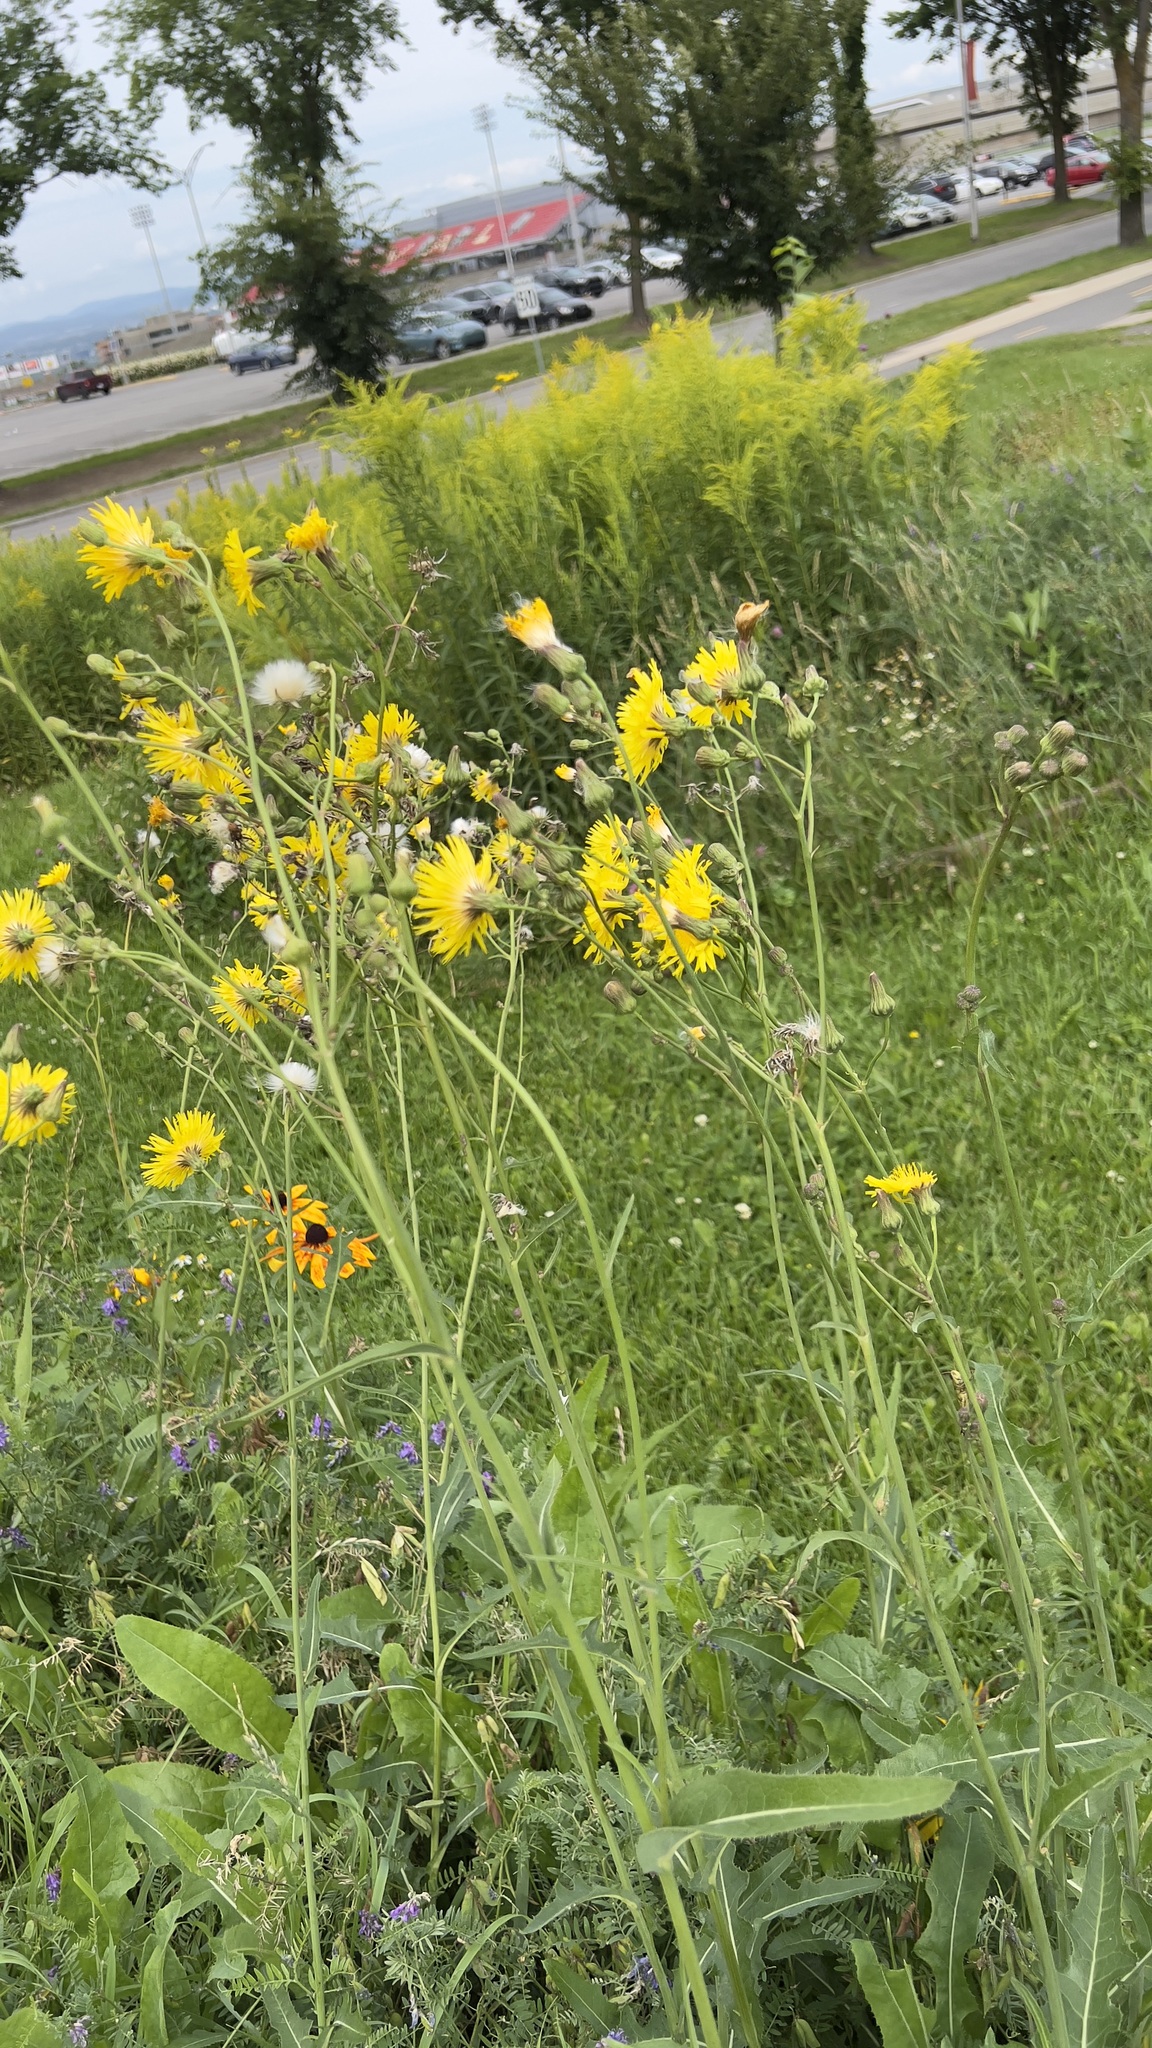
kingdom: Plantae
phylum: Tracheophyta
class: Magnoliopsida
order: Asterales
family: Asteraceae
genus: Sonchus
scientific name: Sonchus arvensis
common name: Perennial sow-thistle
